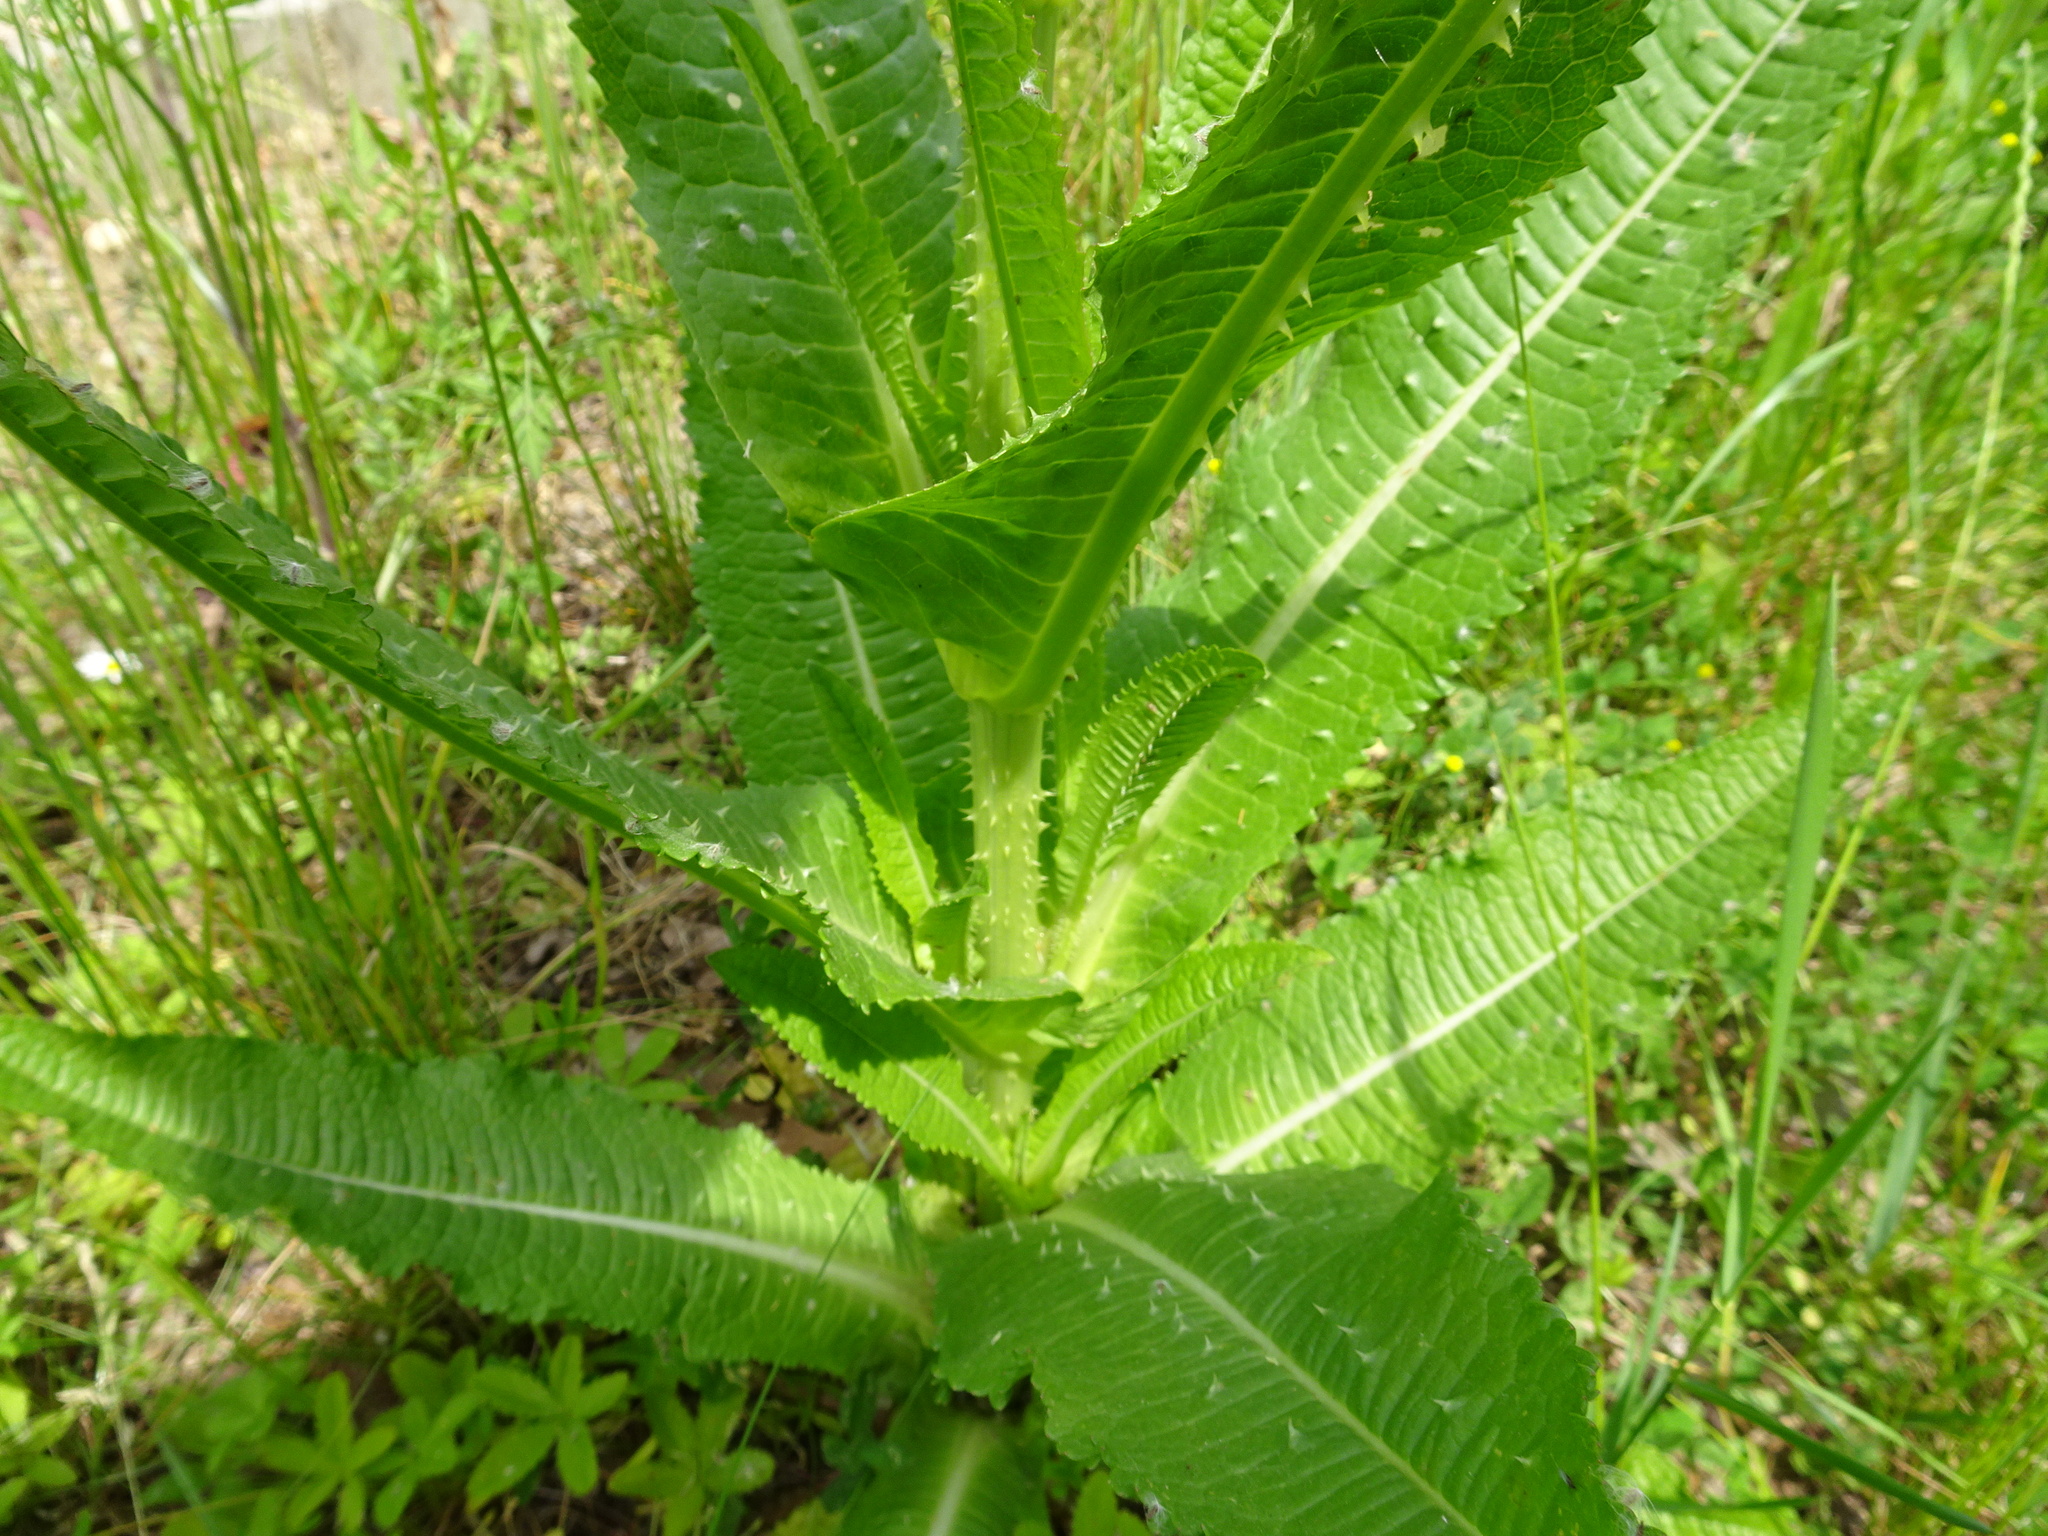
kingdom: Plantae
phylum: Tracheophyta
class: Magnoliopsida
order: Dipsacales
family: Caprifoliaceae
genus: Dipsacus
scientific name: Dipsacus fullonum
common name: Teasel
